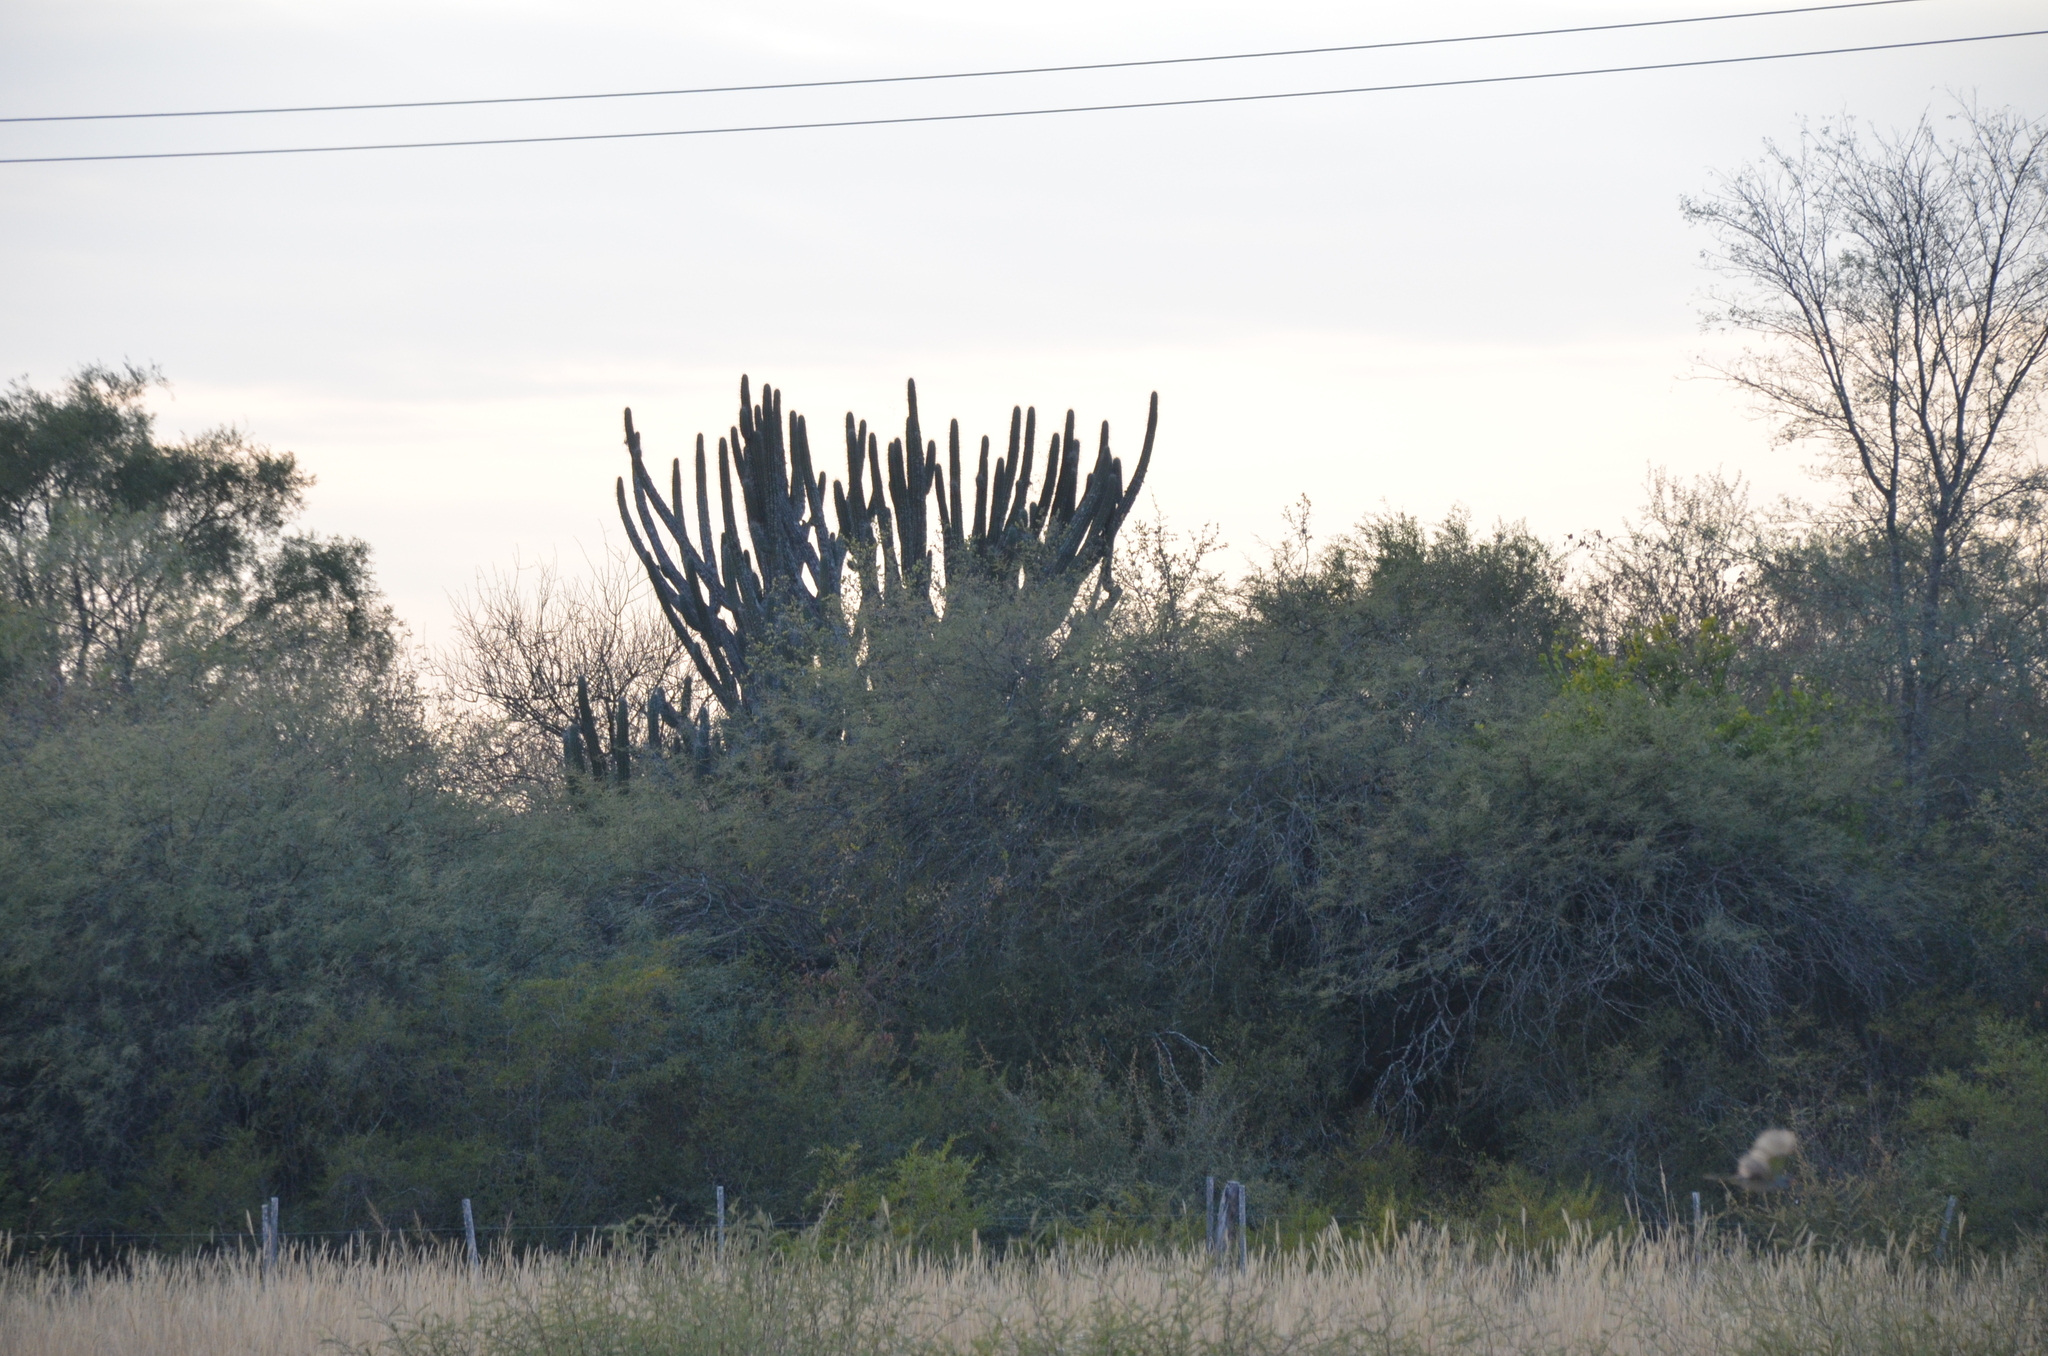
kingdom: Plantae
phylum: Tracheophyta
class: Magnoliopsida
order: Caryophyllales
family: Cactaceae
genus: Stetsonia
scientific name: Stetsonia coryne
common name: Toothpick cactus
